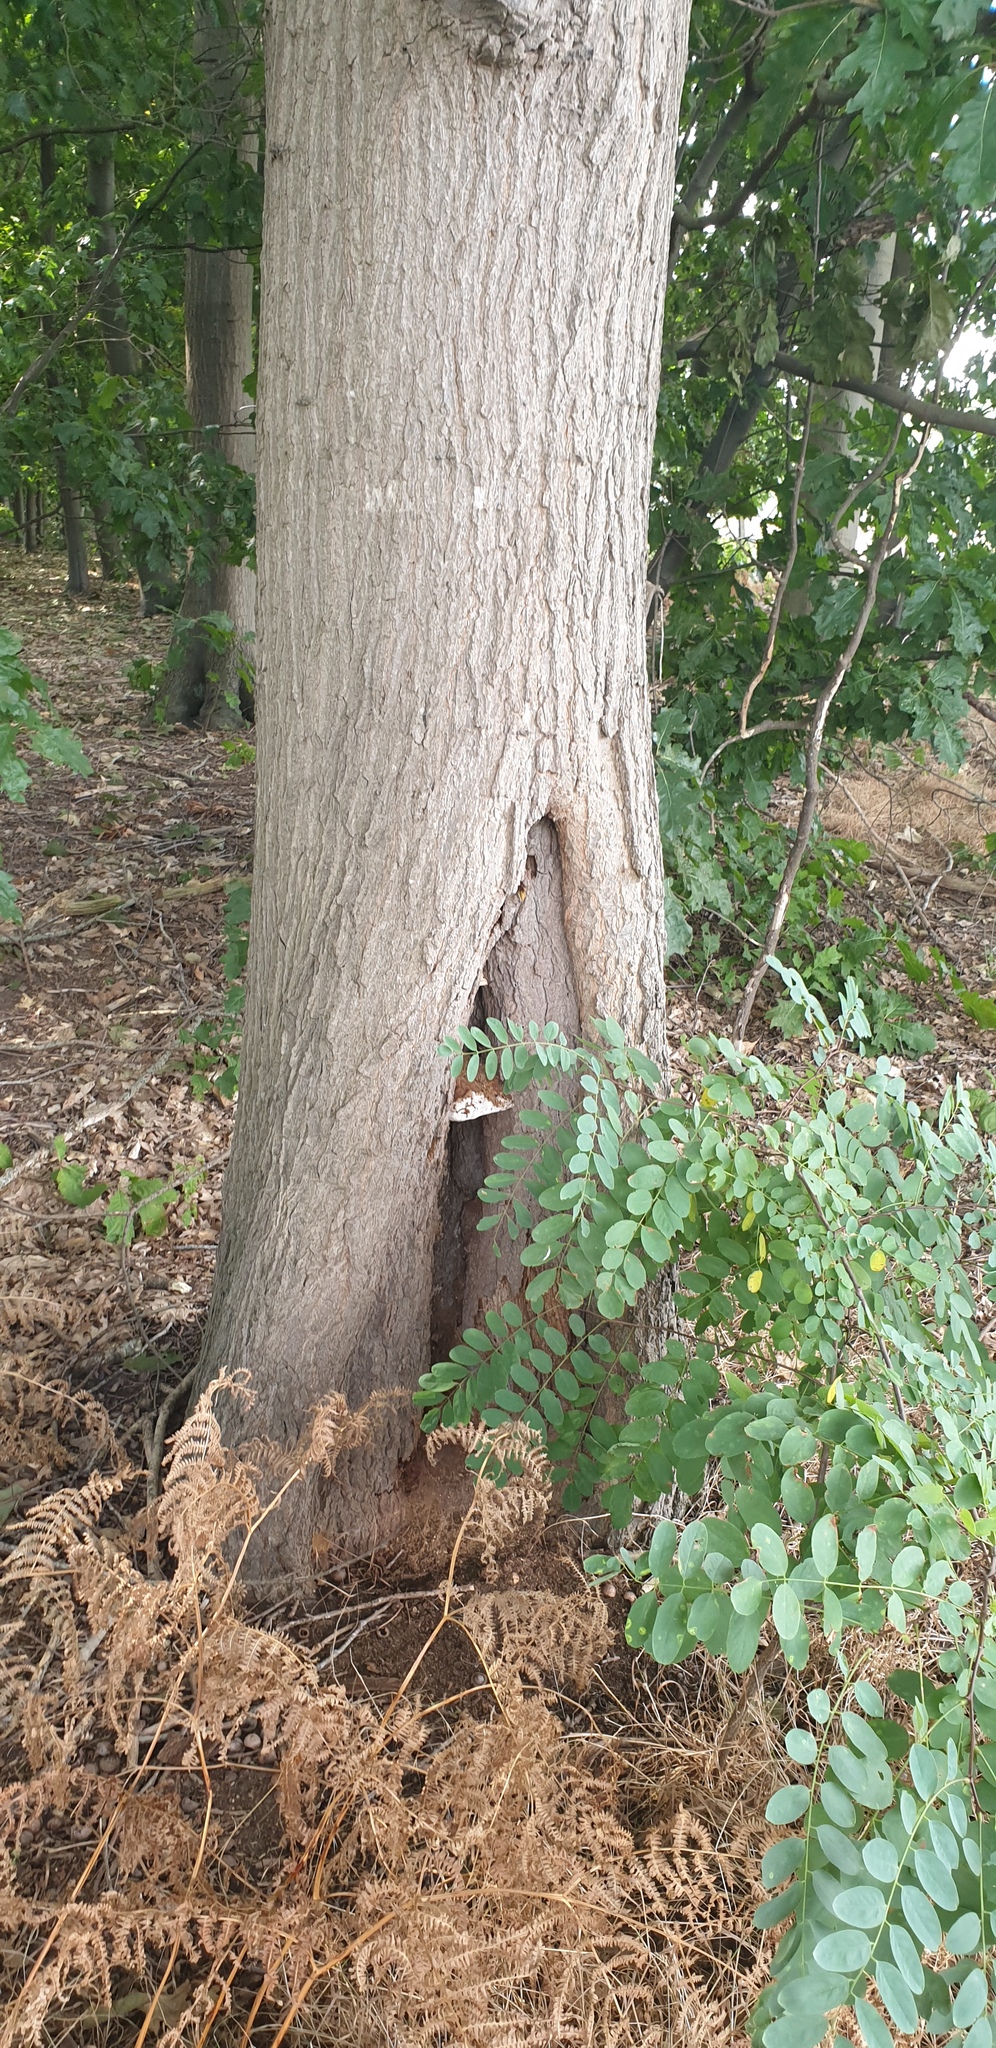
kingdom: Animalia
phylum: Arthropoda
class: Insecta
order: Hymenoptera
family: Vespidae
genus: Vespa
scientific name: Vespa crabro
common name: Hornet
